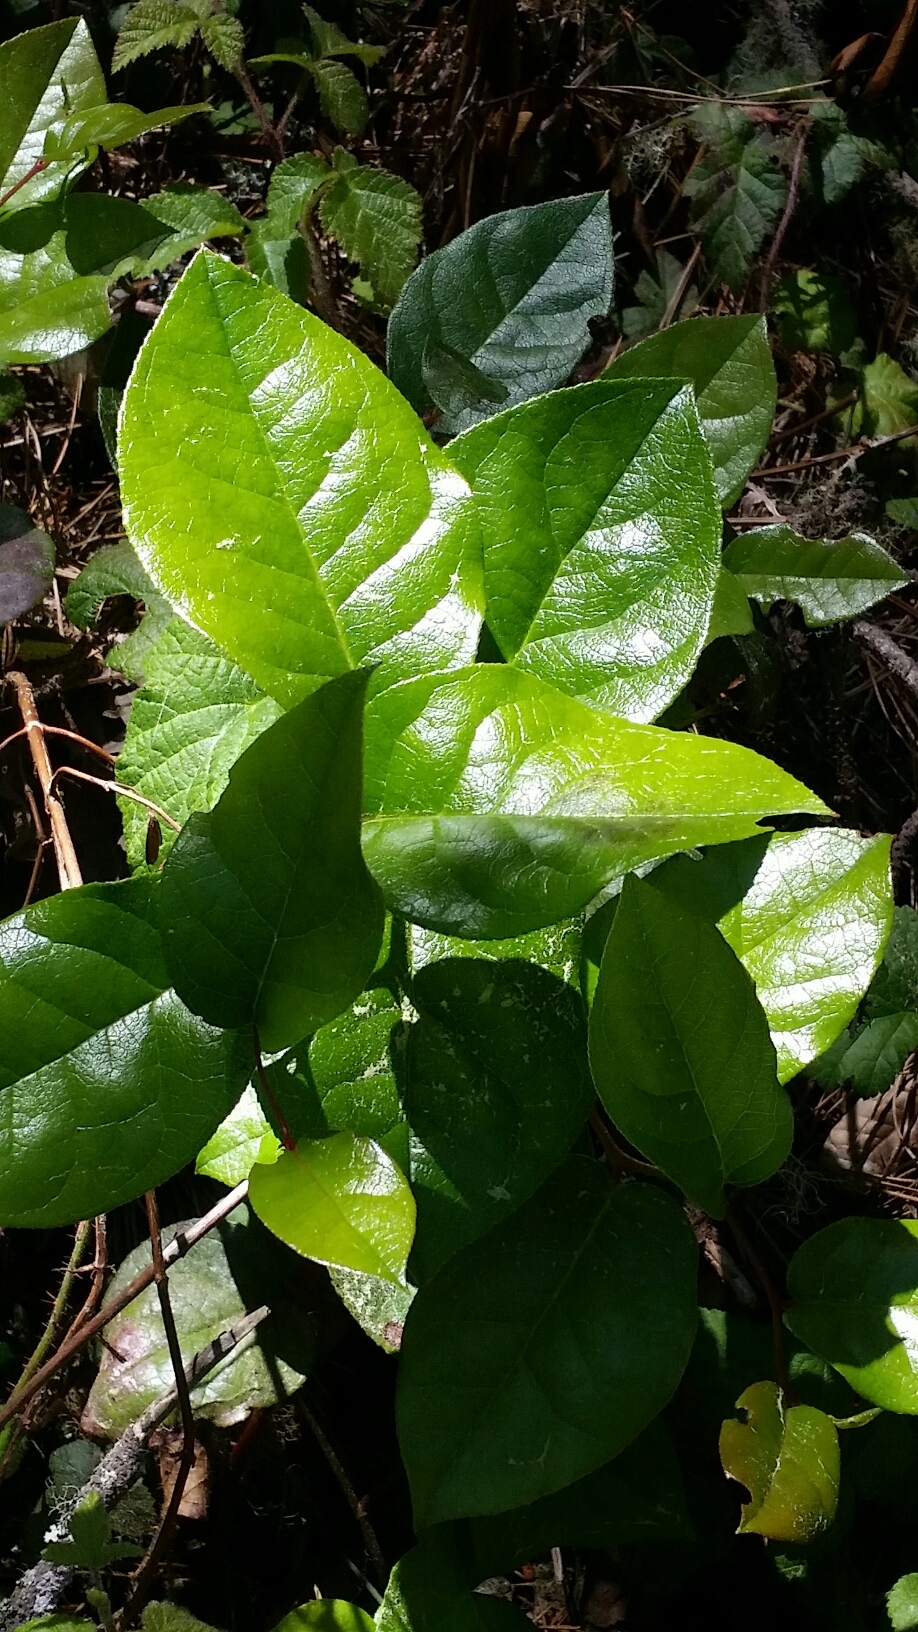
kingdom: Plantae
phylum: Tracheophyta
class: Magnoliopsida
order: Ericales
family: Ericaceae
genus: Gaultheria
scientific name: Gaultheria shallon
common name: Shallon
